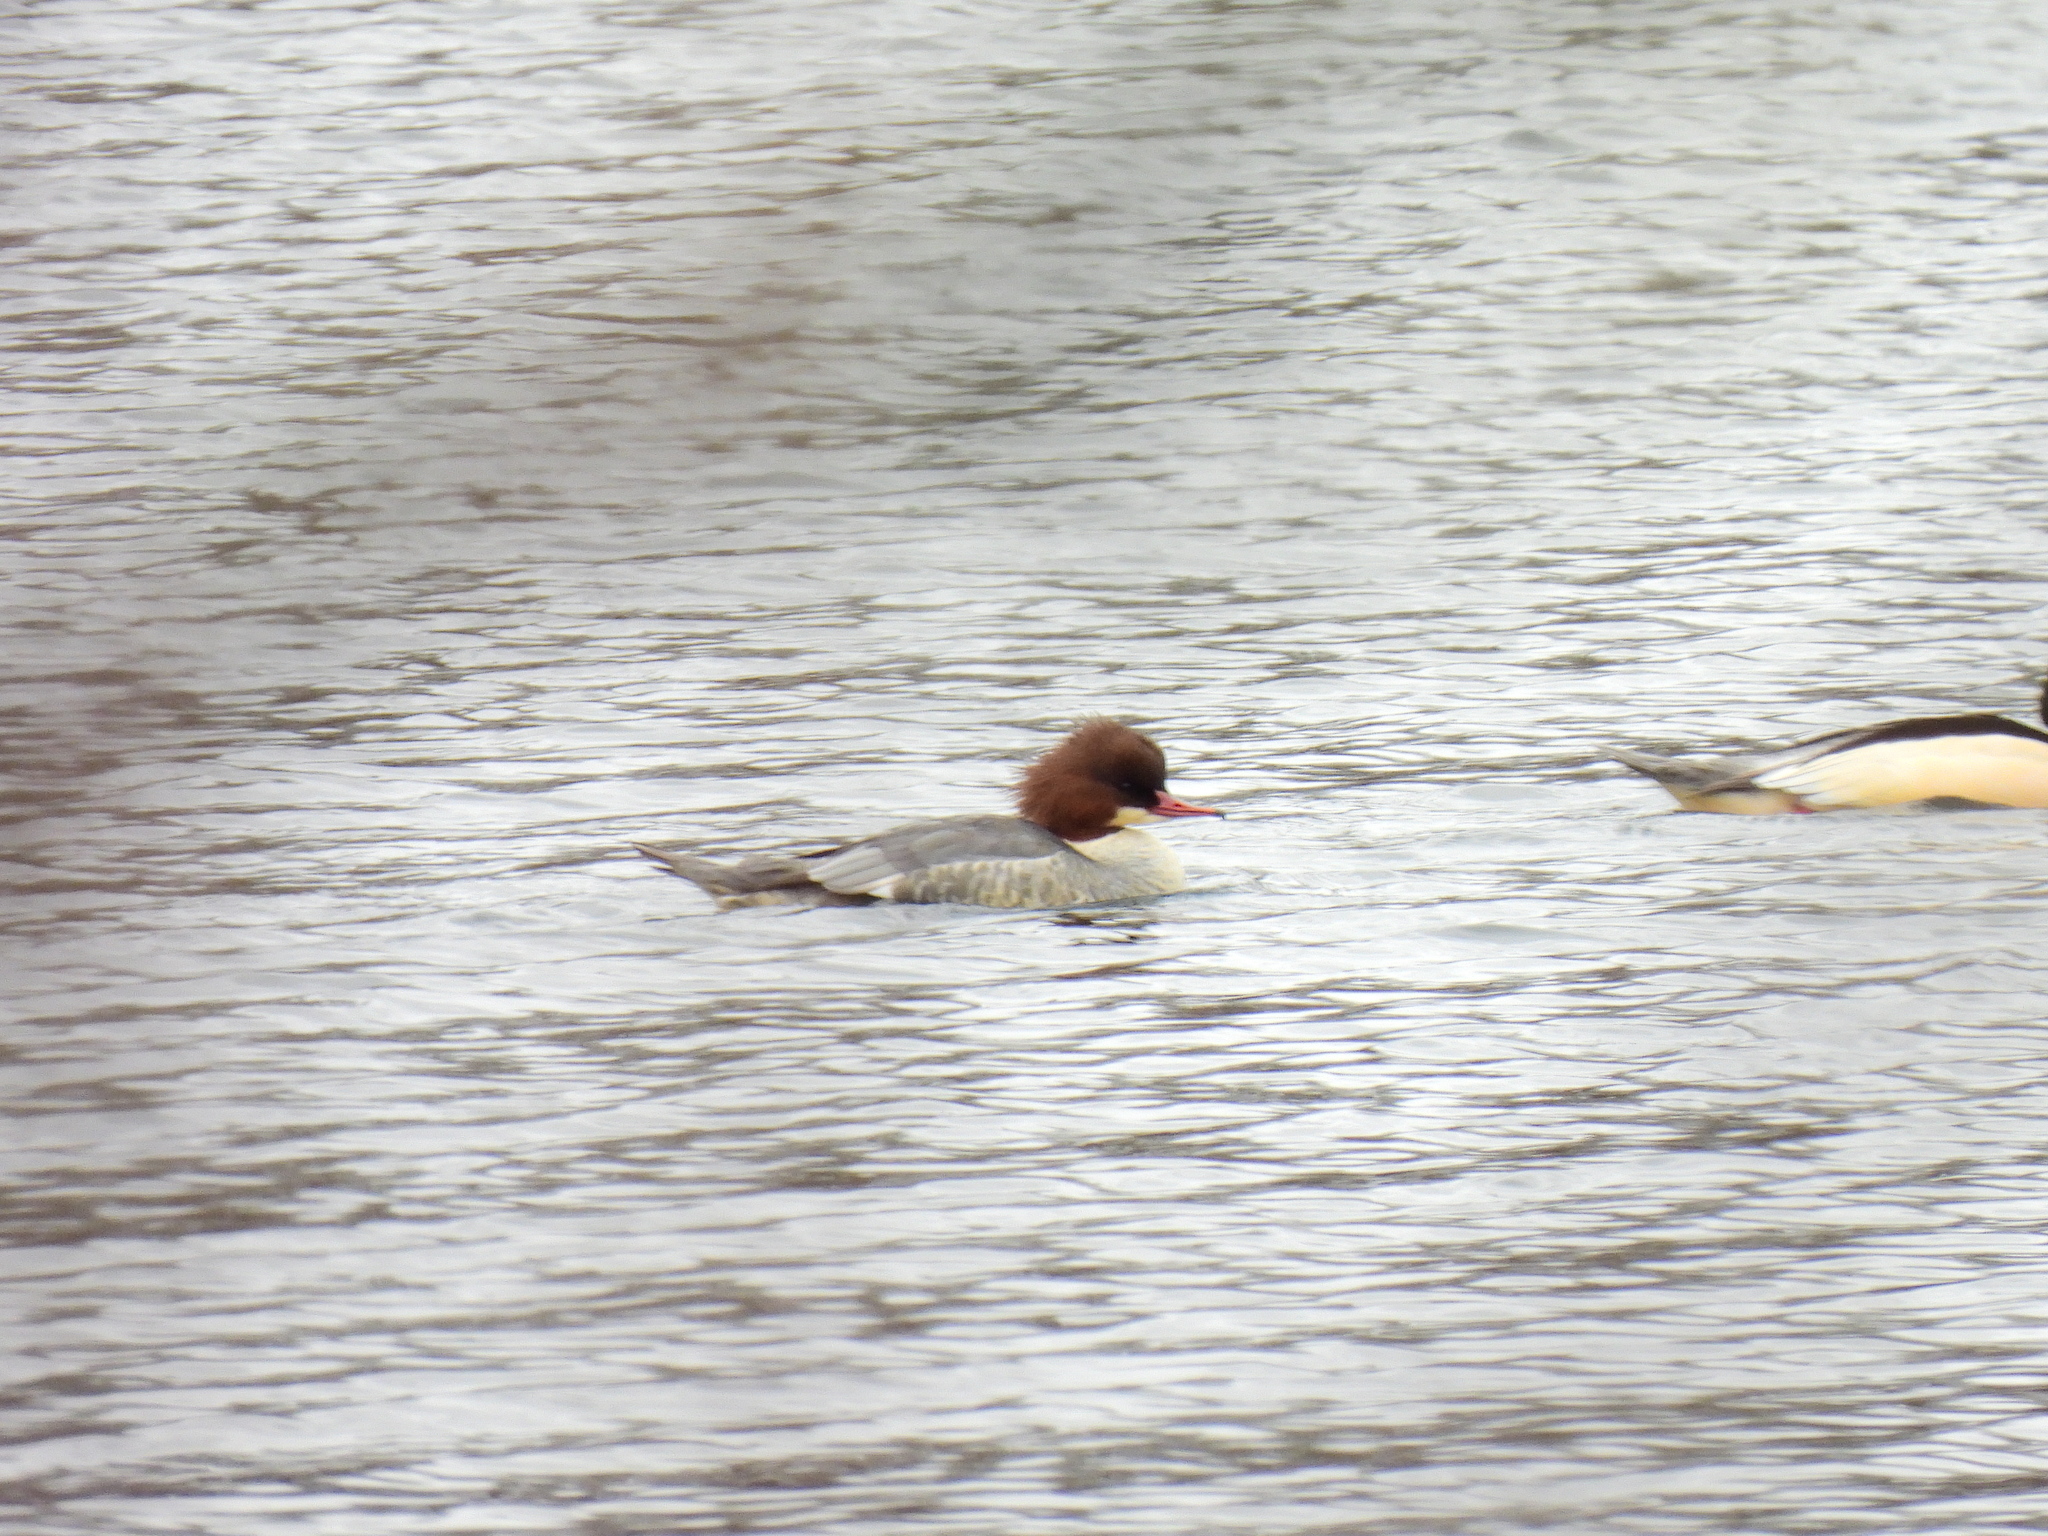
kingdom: Animalia
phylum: Chordata
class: Aves
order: Anseriformes
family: Anatidae
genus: Mergus
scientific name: Mergus merganser
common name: Common merganser
